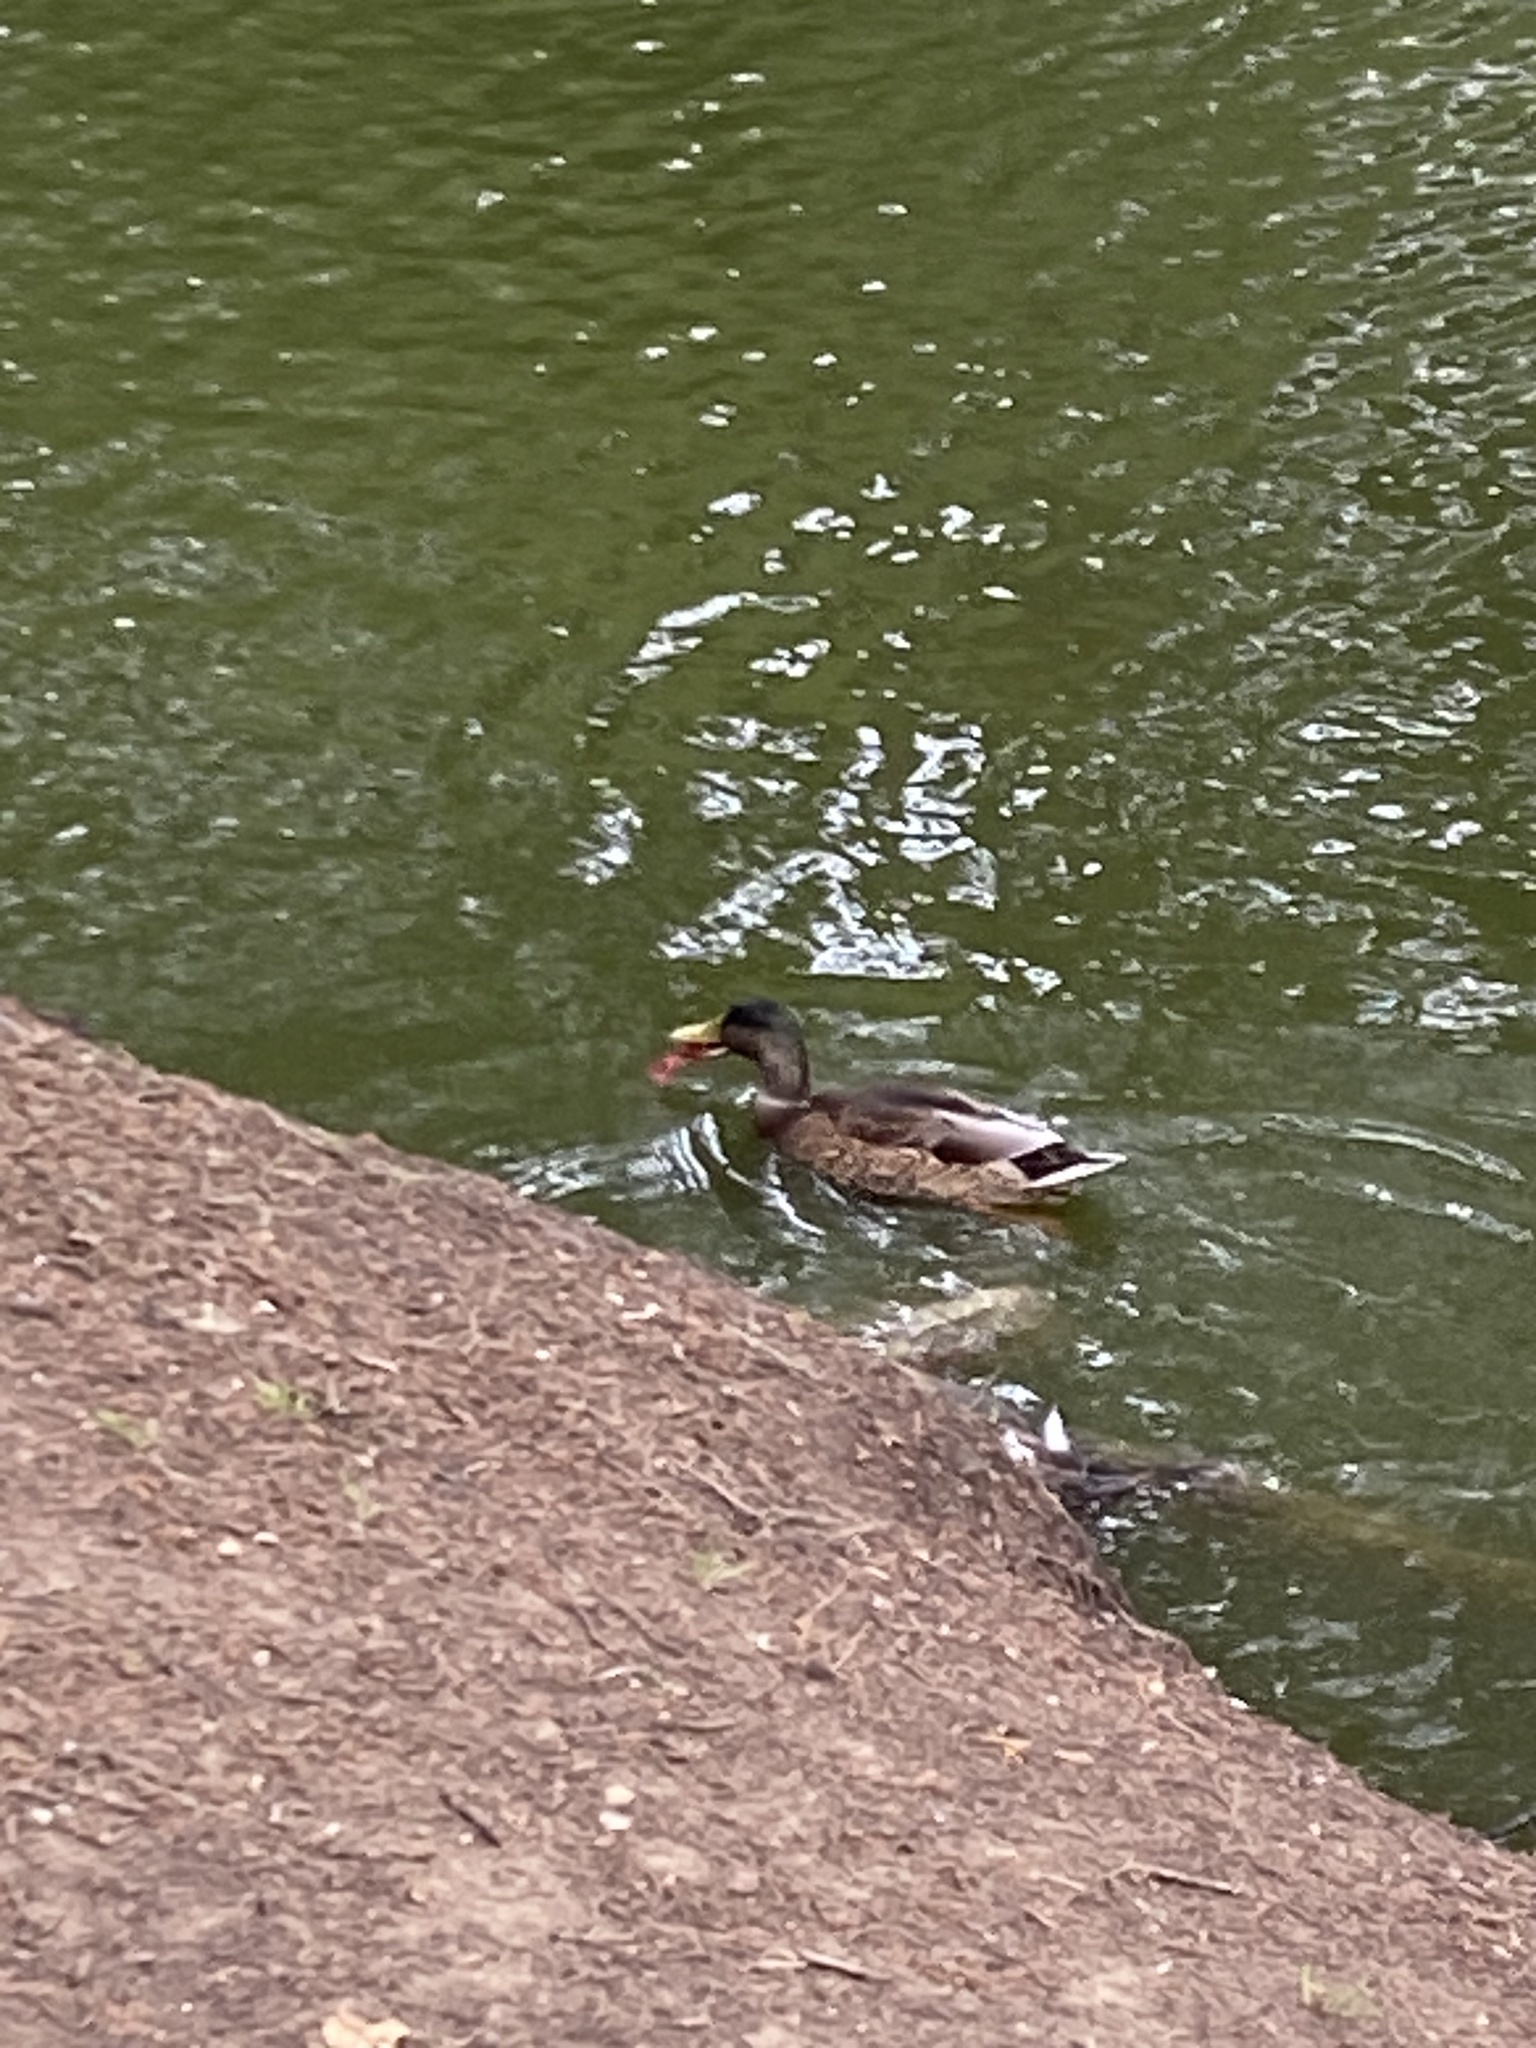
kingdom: Animalia
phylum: Chordata
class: Aves
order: Anseriformes
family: Anatidae
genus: Anas
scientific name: Anas platyrhynchos
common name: Mallard
